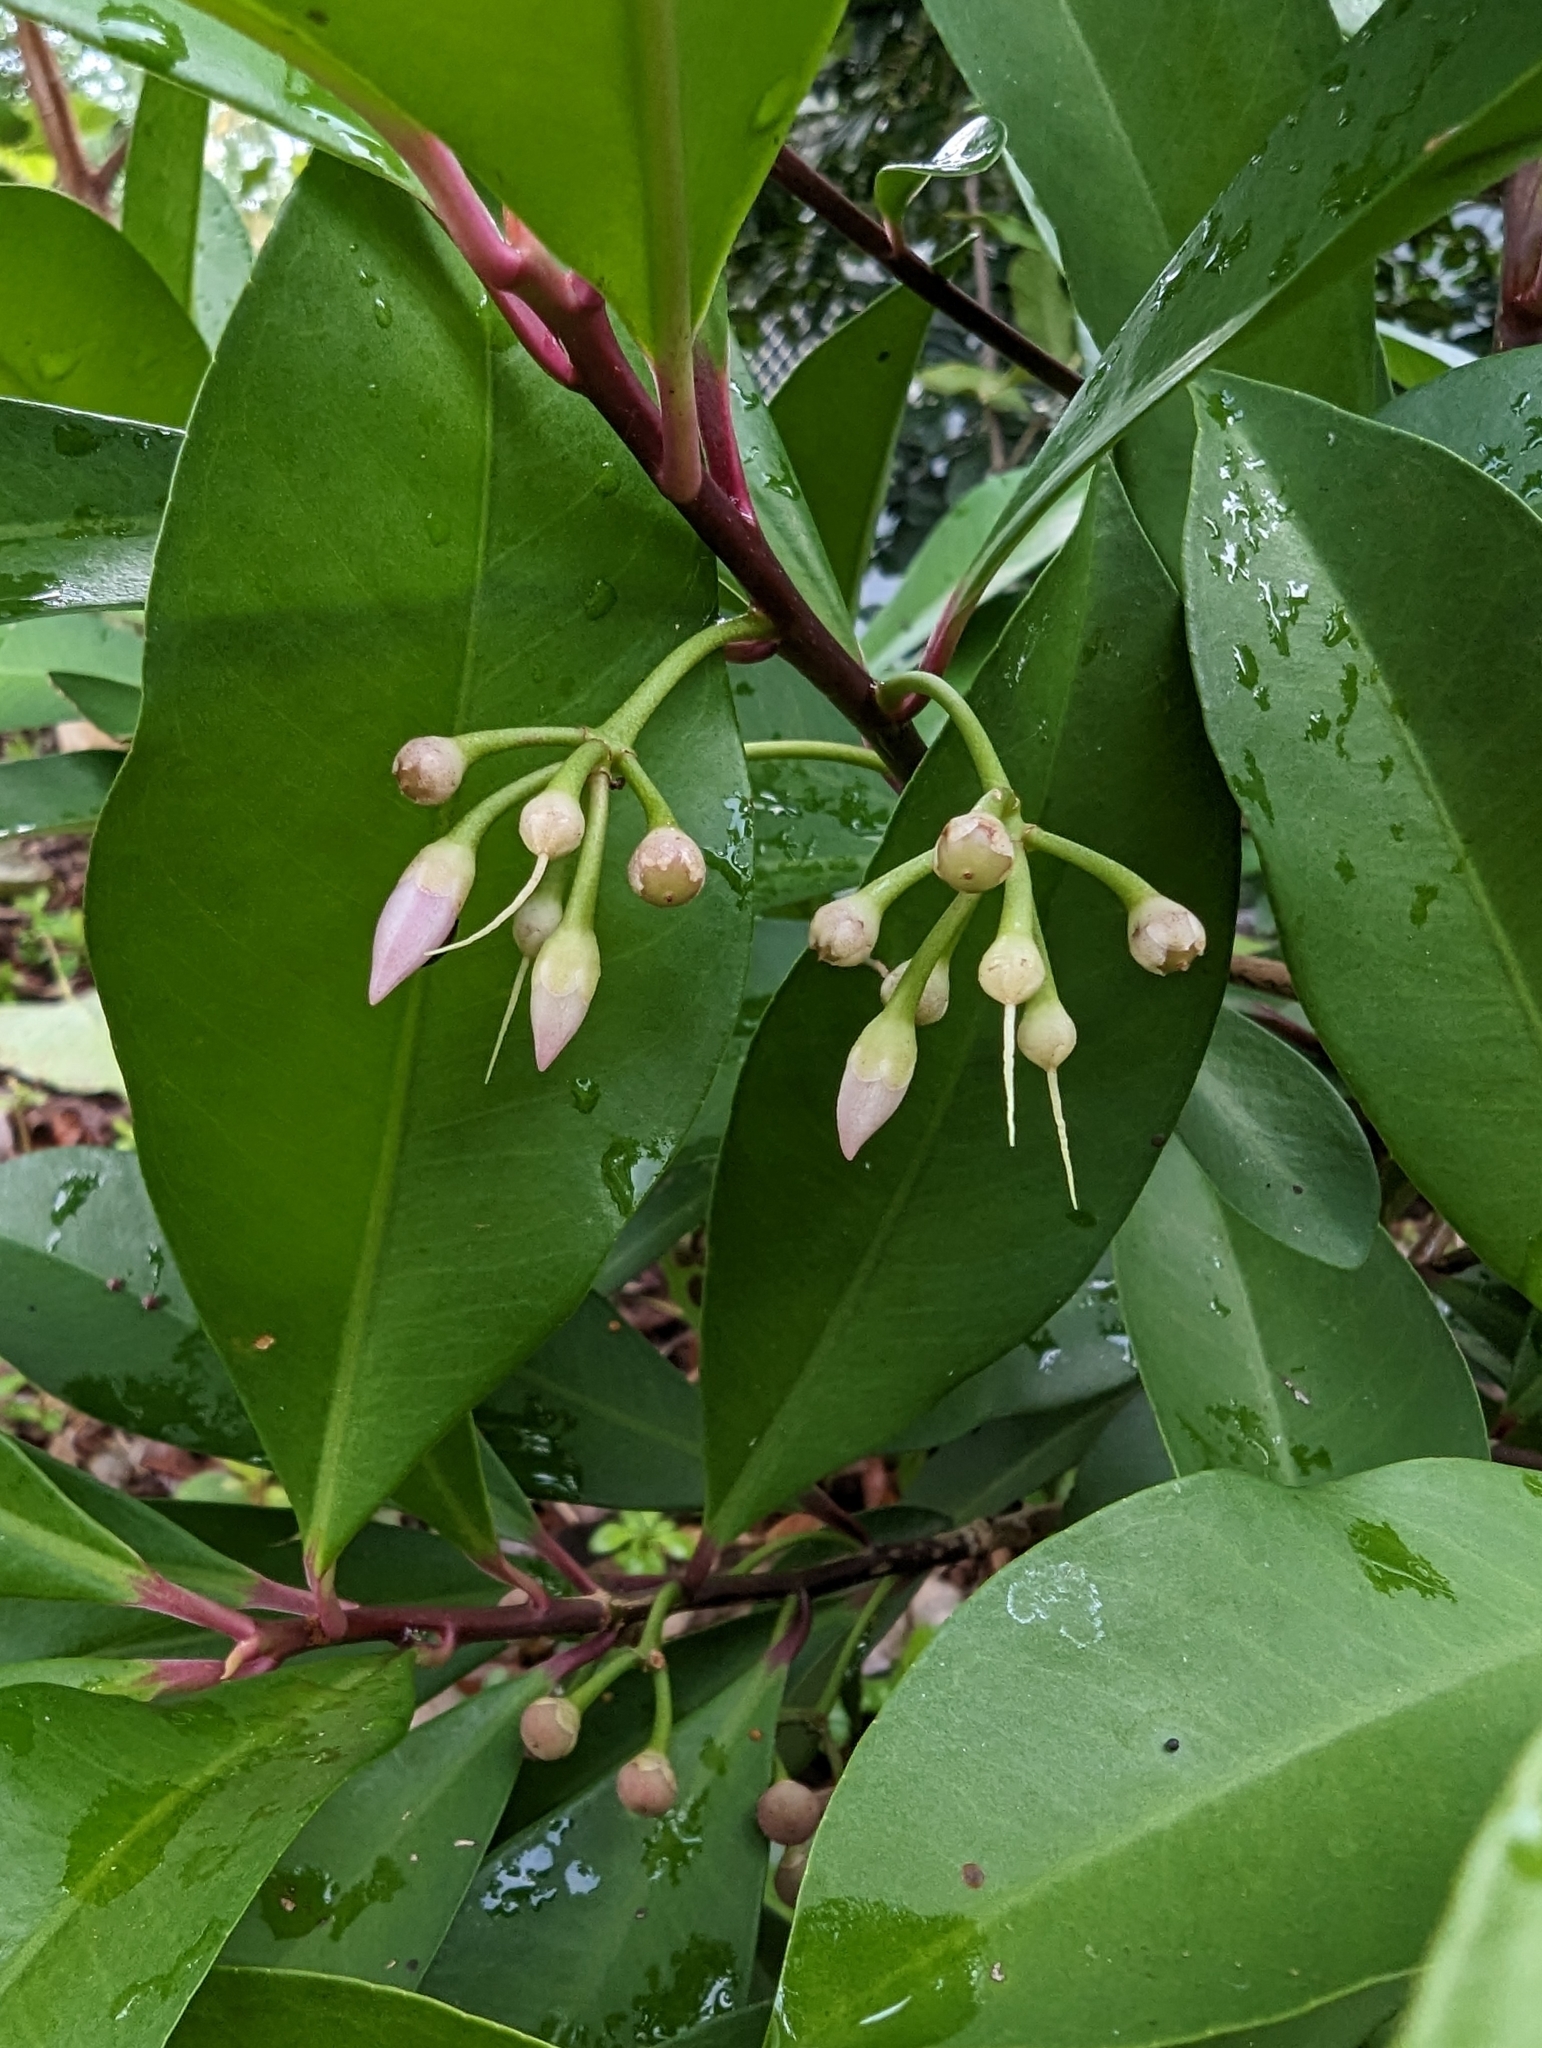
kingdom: Plantae
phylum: Tracheophyta
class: Magnoliopsida
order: Ericales
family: Primulaceae
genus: Ardisia
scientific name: Ardisia elliptica
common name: Shoebutton
